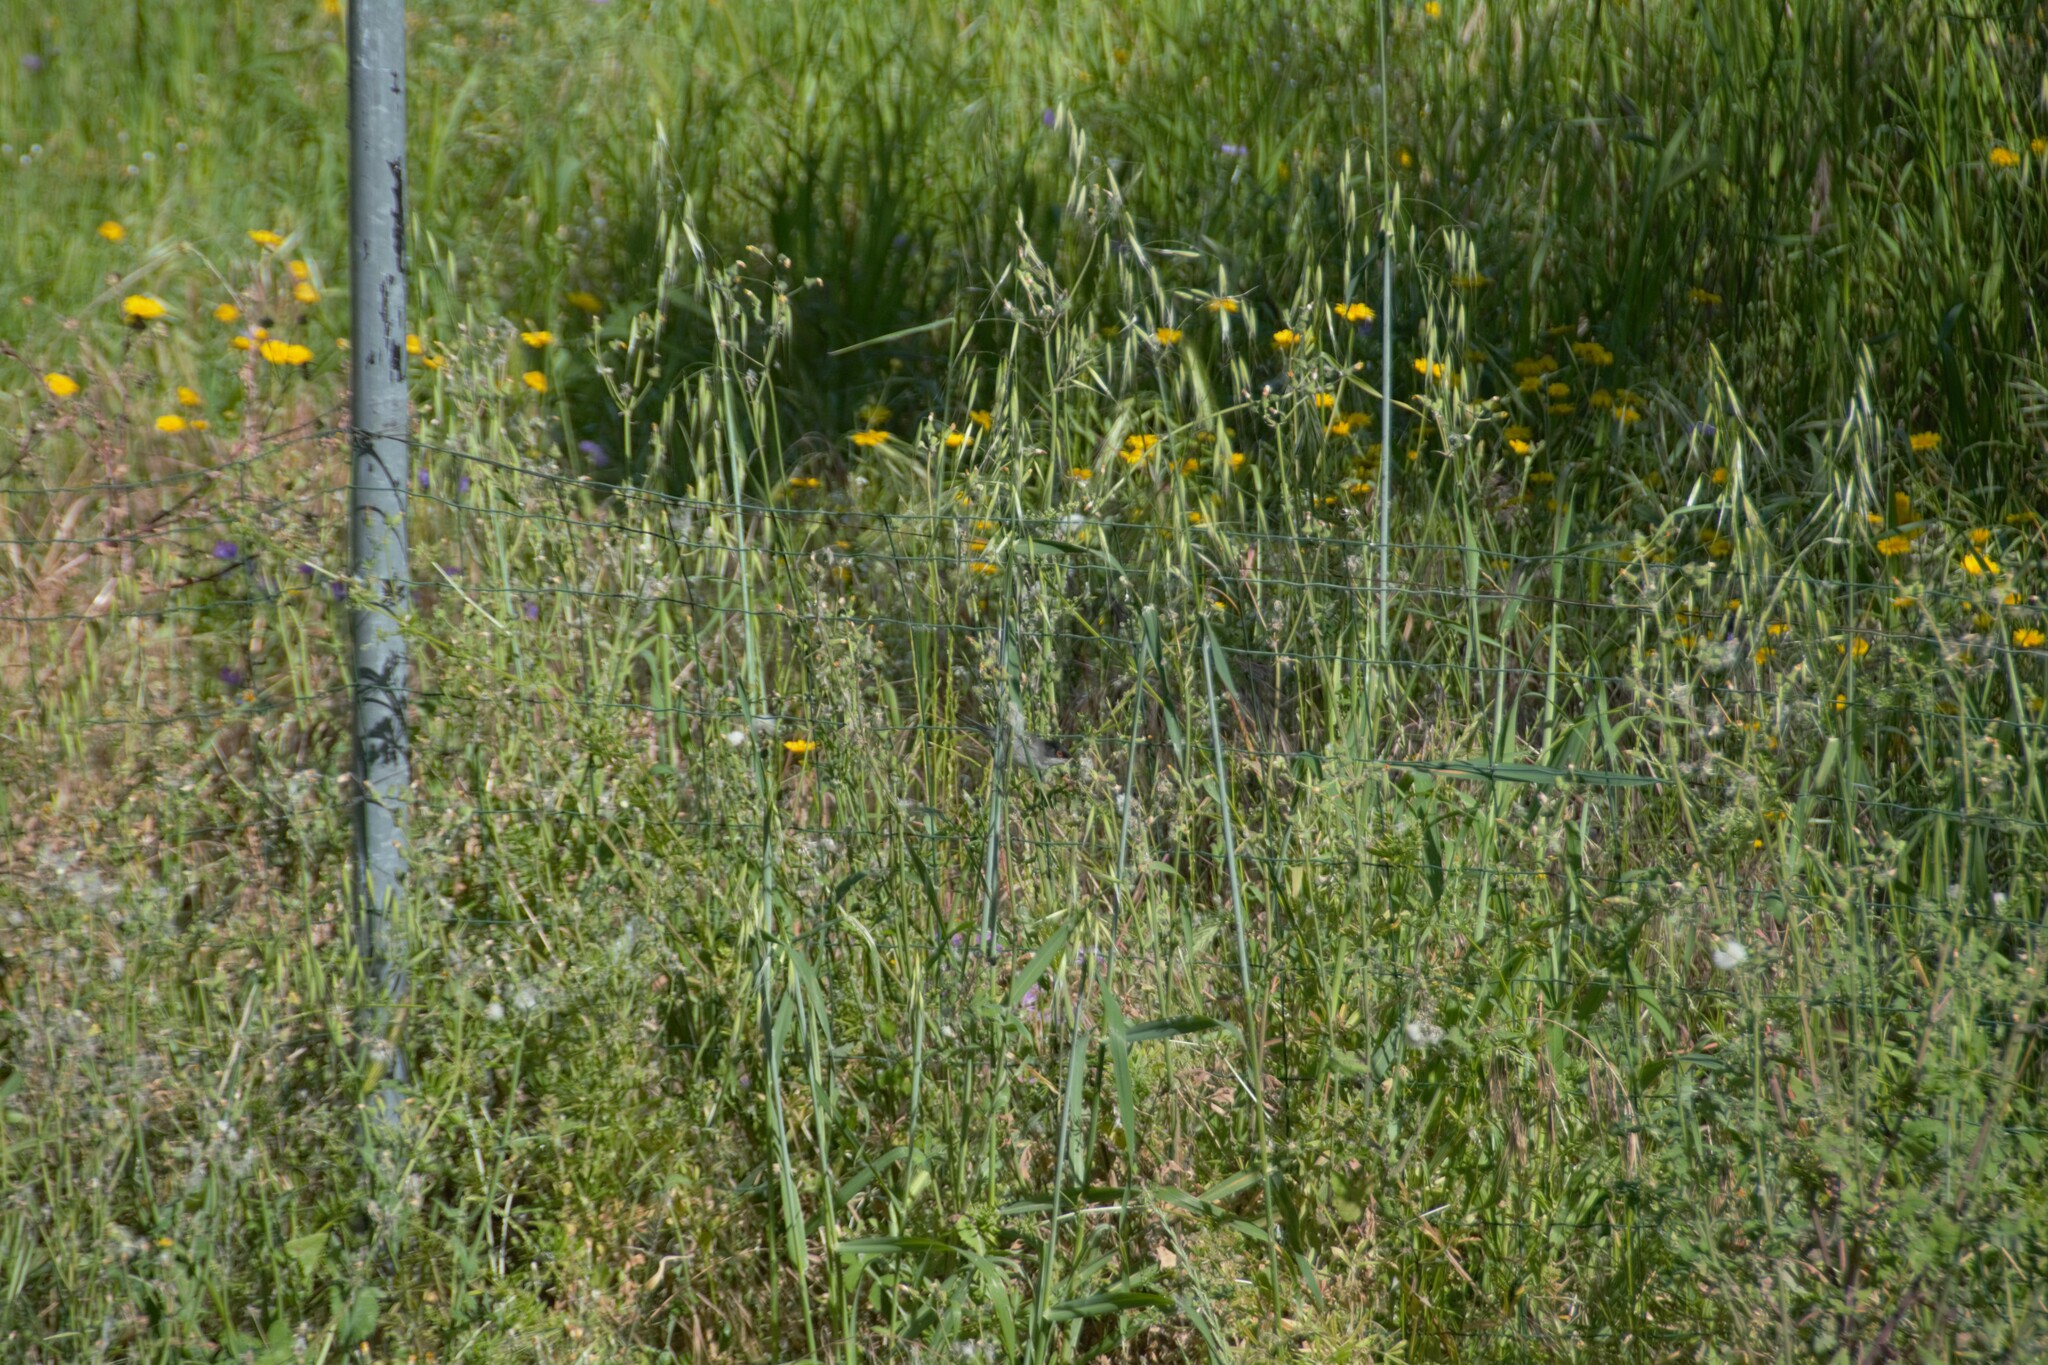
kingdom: Animalia
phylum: Chordata
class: Aves
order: Passeriformes
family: Sylviidae
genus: Curruca
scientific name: Curruca melanocephala
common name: Sardinian warbler
